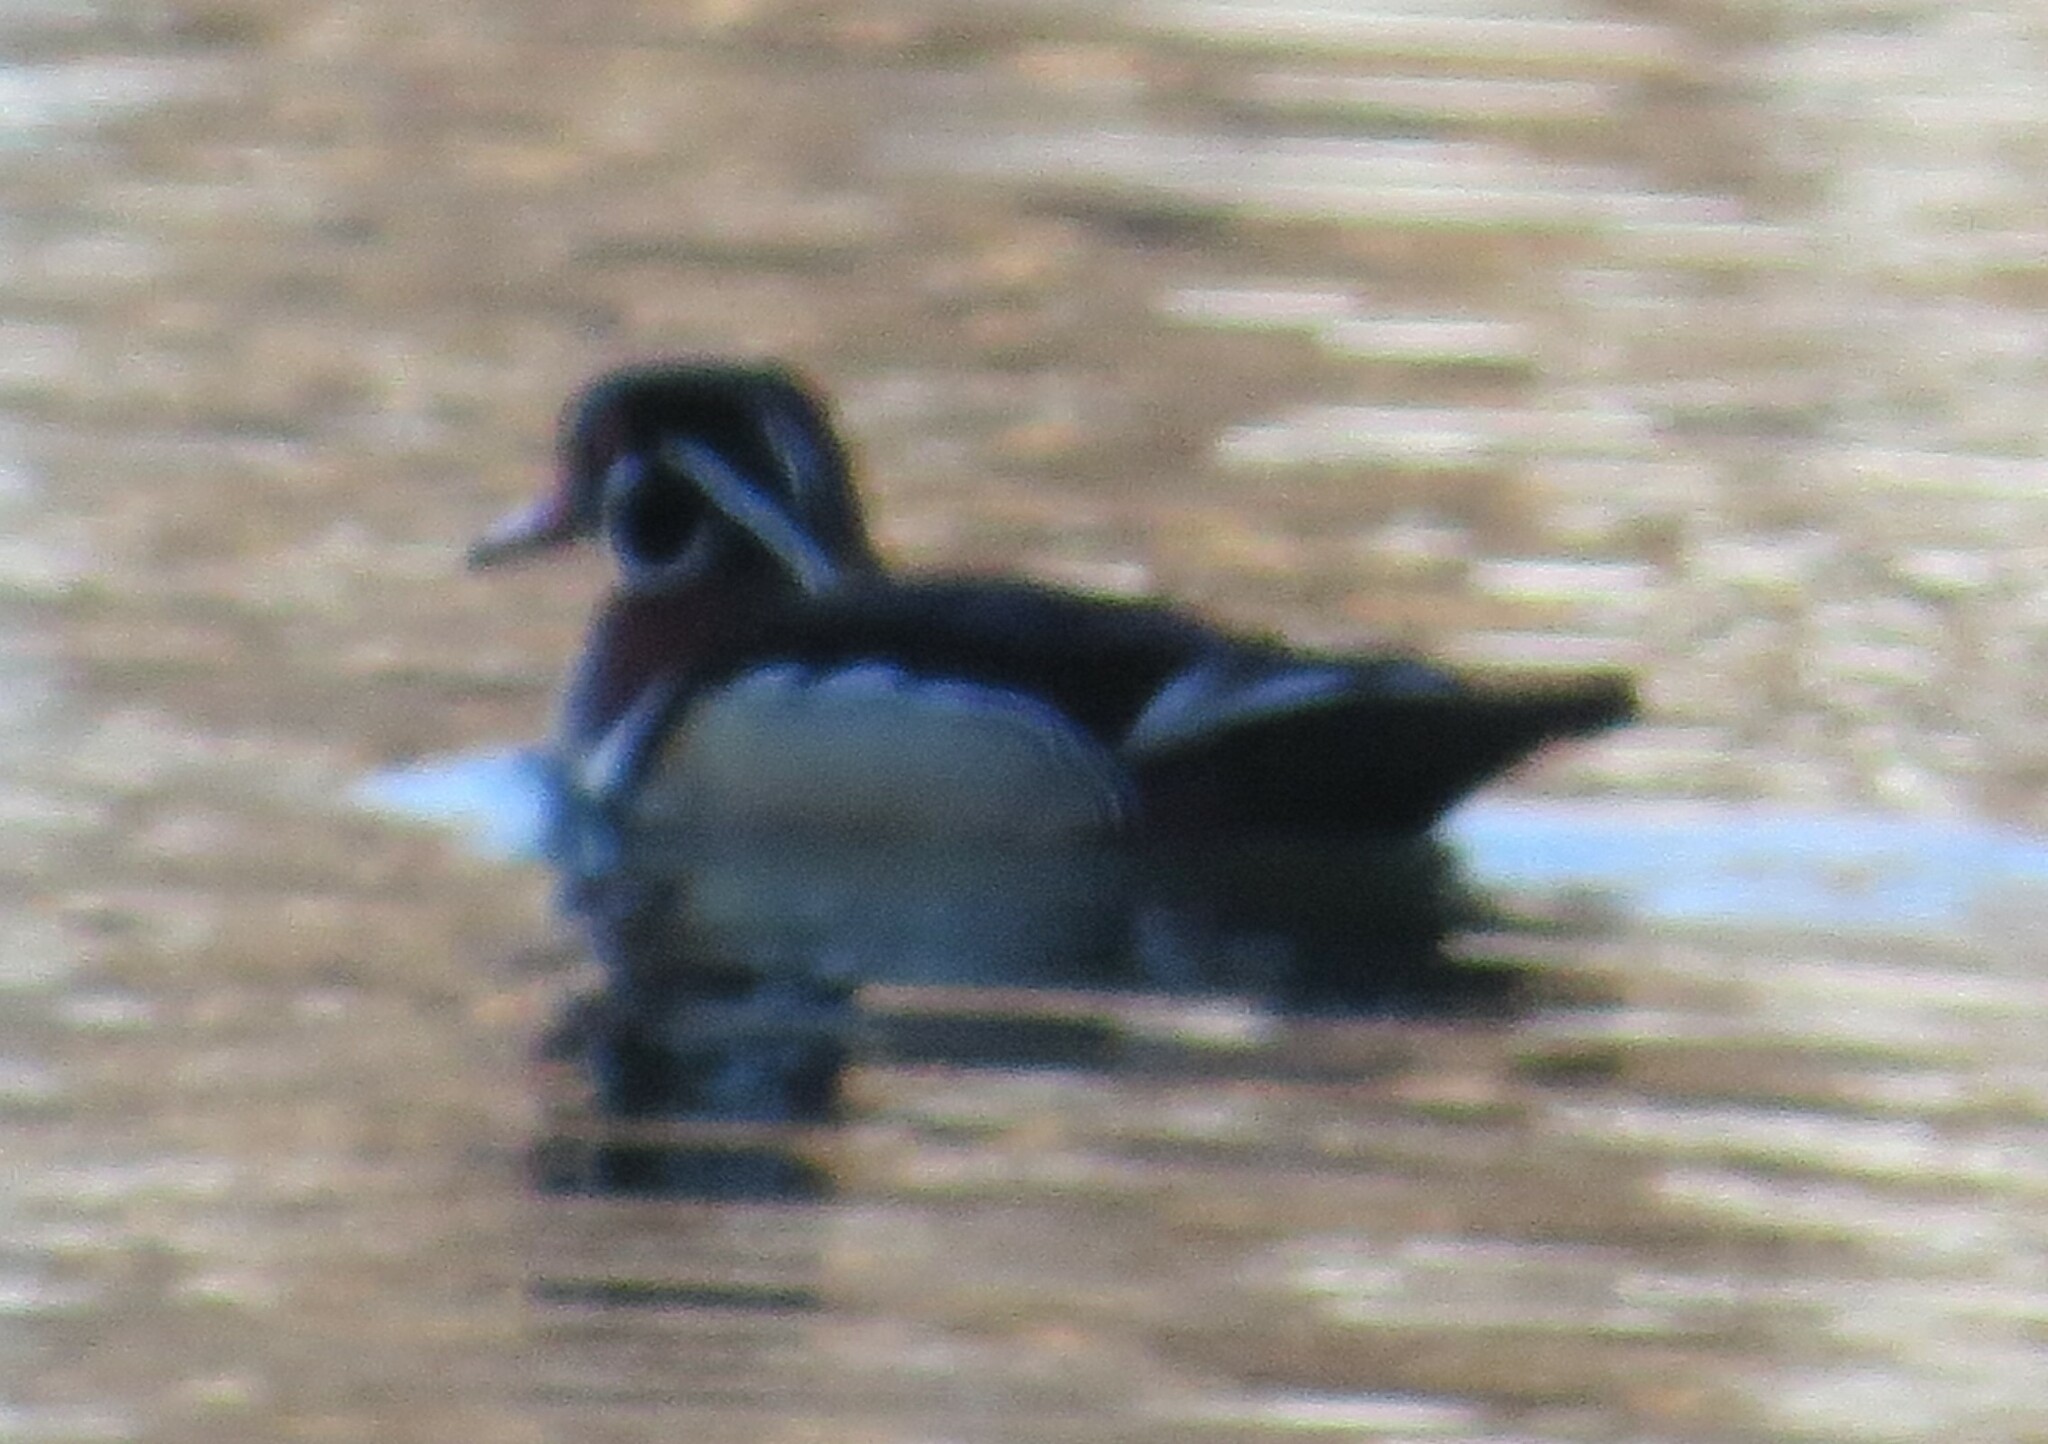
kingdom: Animalia
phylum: Chordata
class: Aves
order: Anseriformes
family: Anatidae
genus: Aix
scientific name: Aix sponsa
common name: Wood duck
